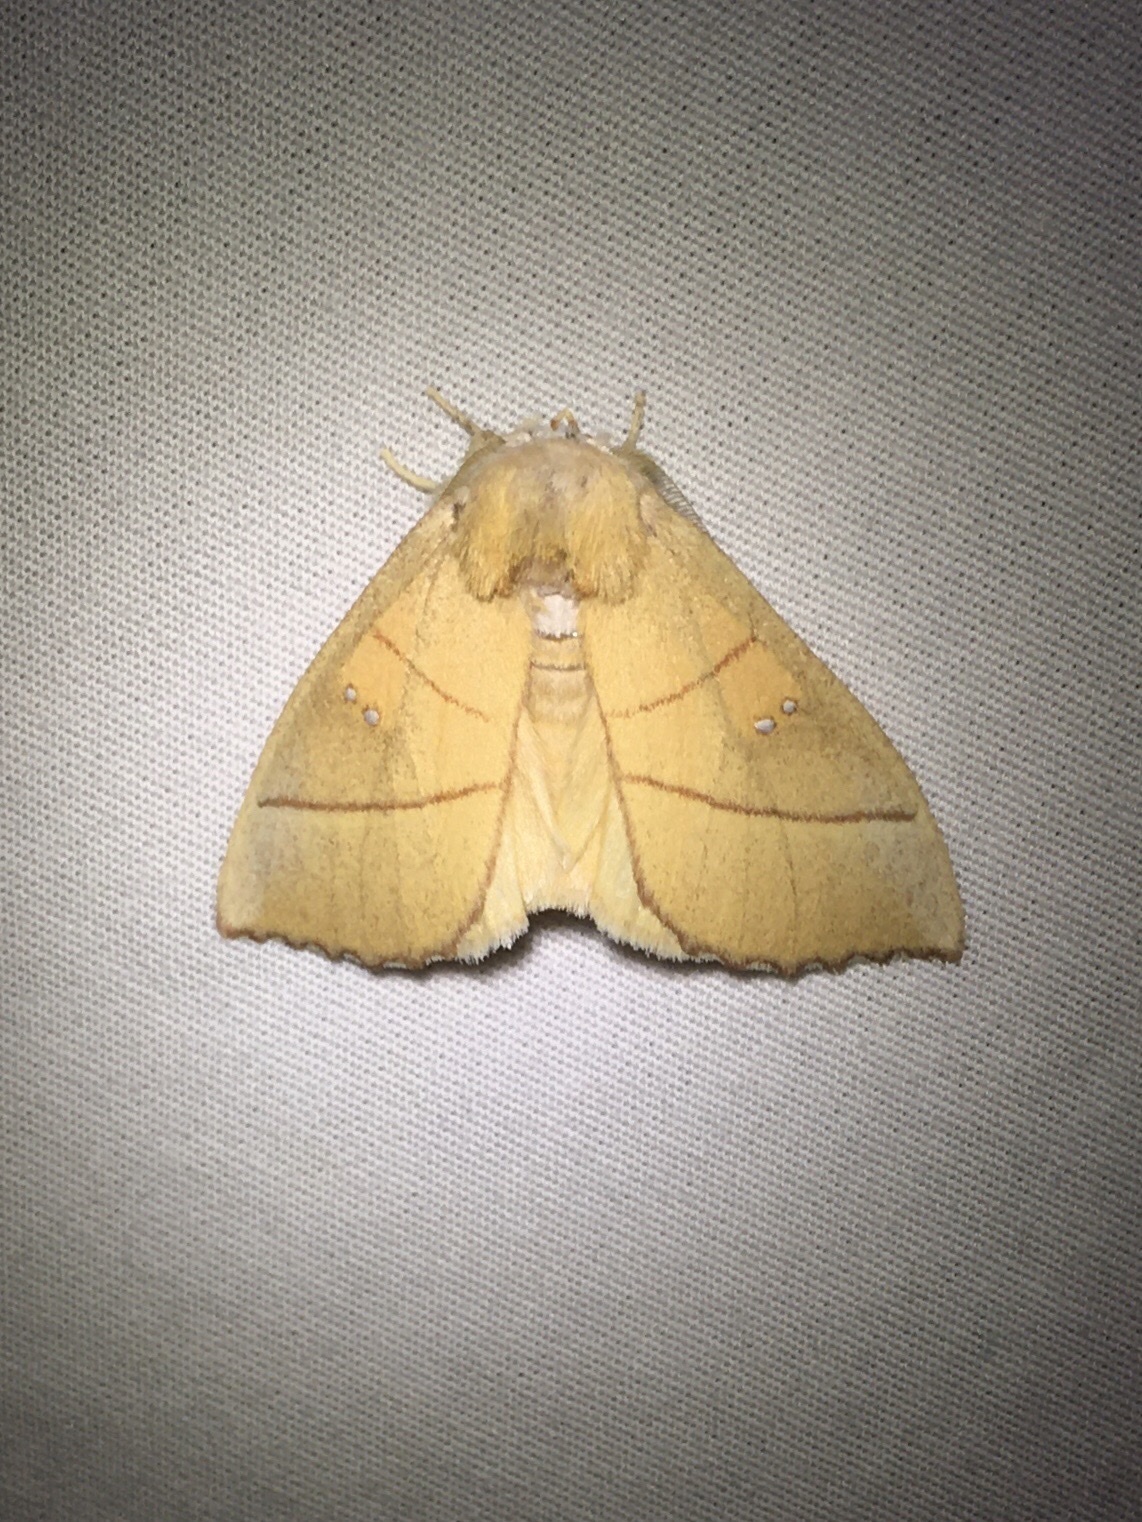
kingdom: Animalia
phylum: Arthropoda
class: Insecta
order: Lepidoptera
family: Notodontidae
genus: Nadata
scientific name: Nadata gibbosa
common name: White-dotted prominent
